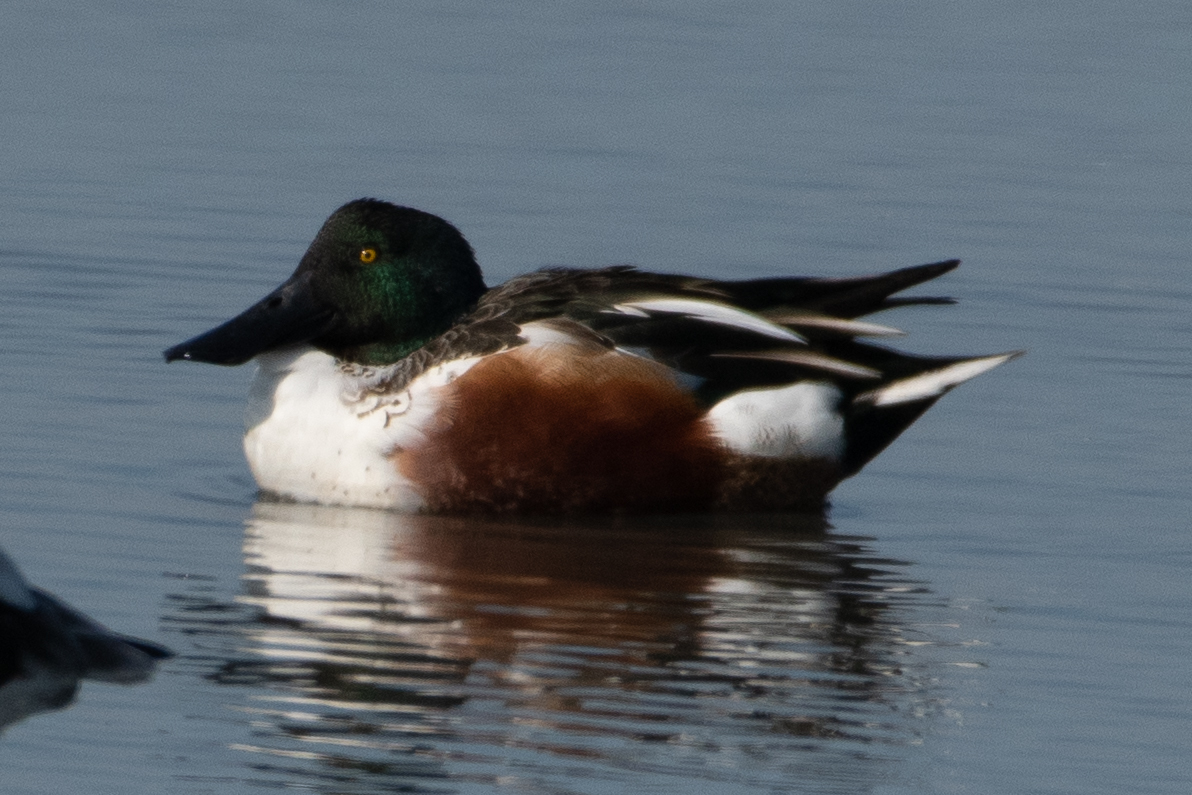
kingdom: Animalia
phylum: Chordata
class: Aves
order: Anseriformes
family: Anatidae
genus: Spatula
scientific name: Spatula clypeata
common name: Northern shoveler
